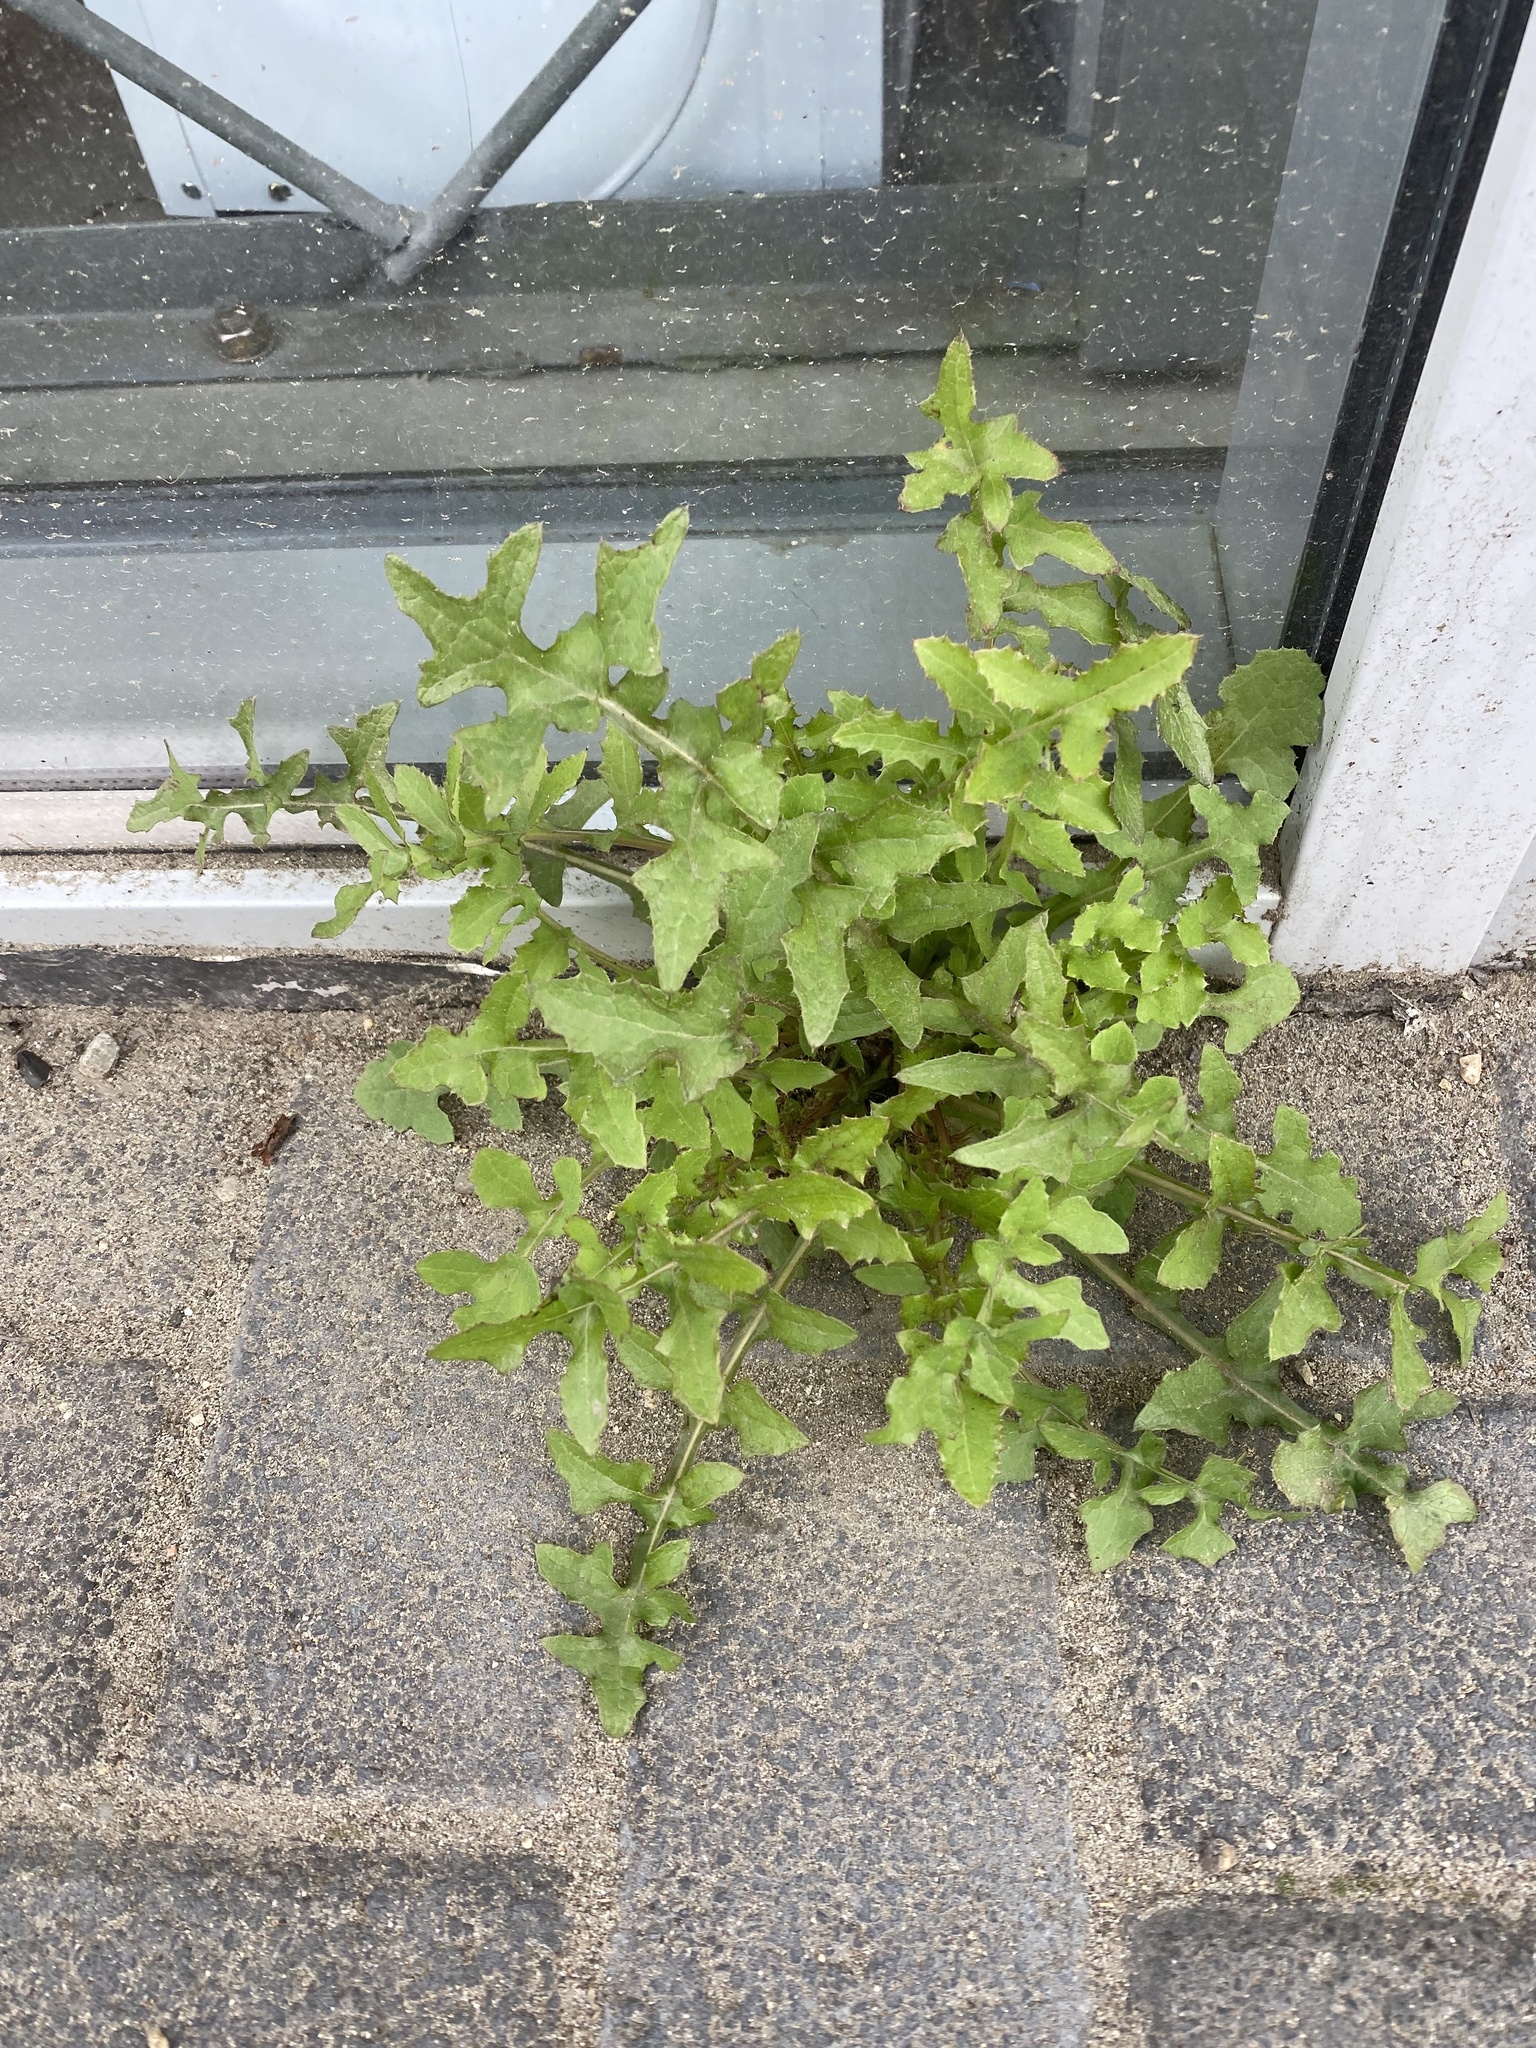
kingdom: Plantae
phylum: Tracheophyta
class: Magnoliopsida
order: Asterales
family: Asteraceae
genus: Sonchus
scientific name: Sonchus oleraceus
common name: Common sowthistle
